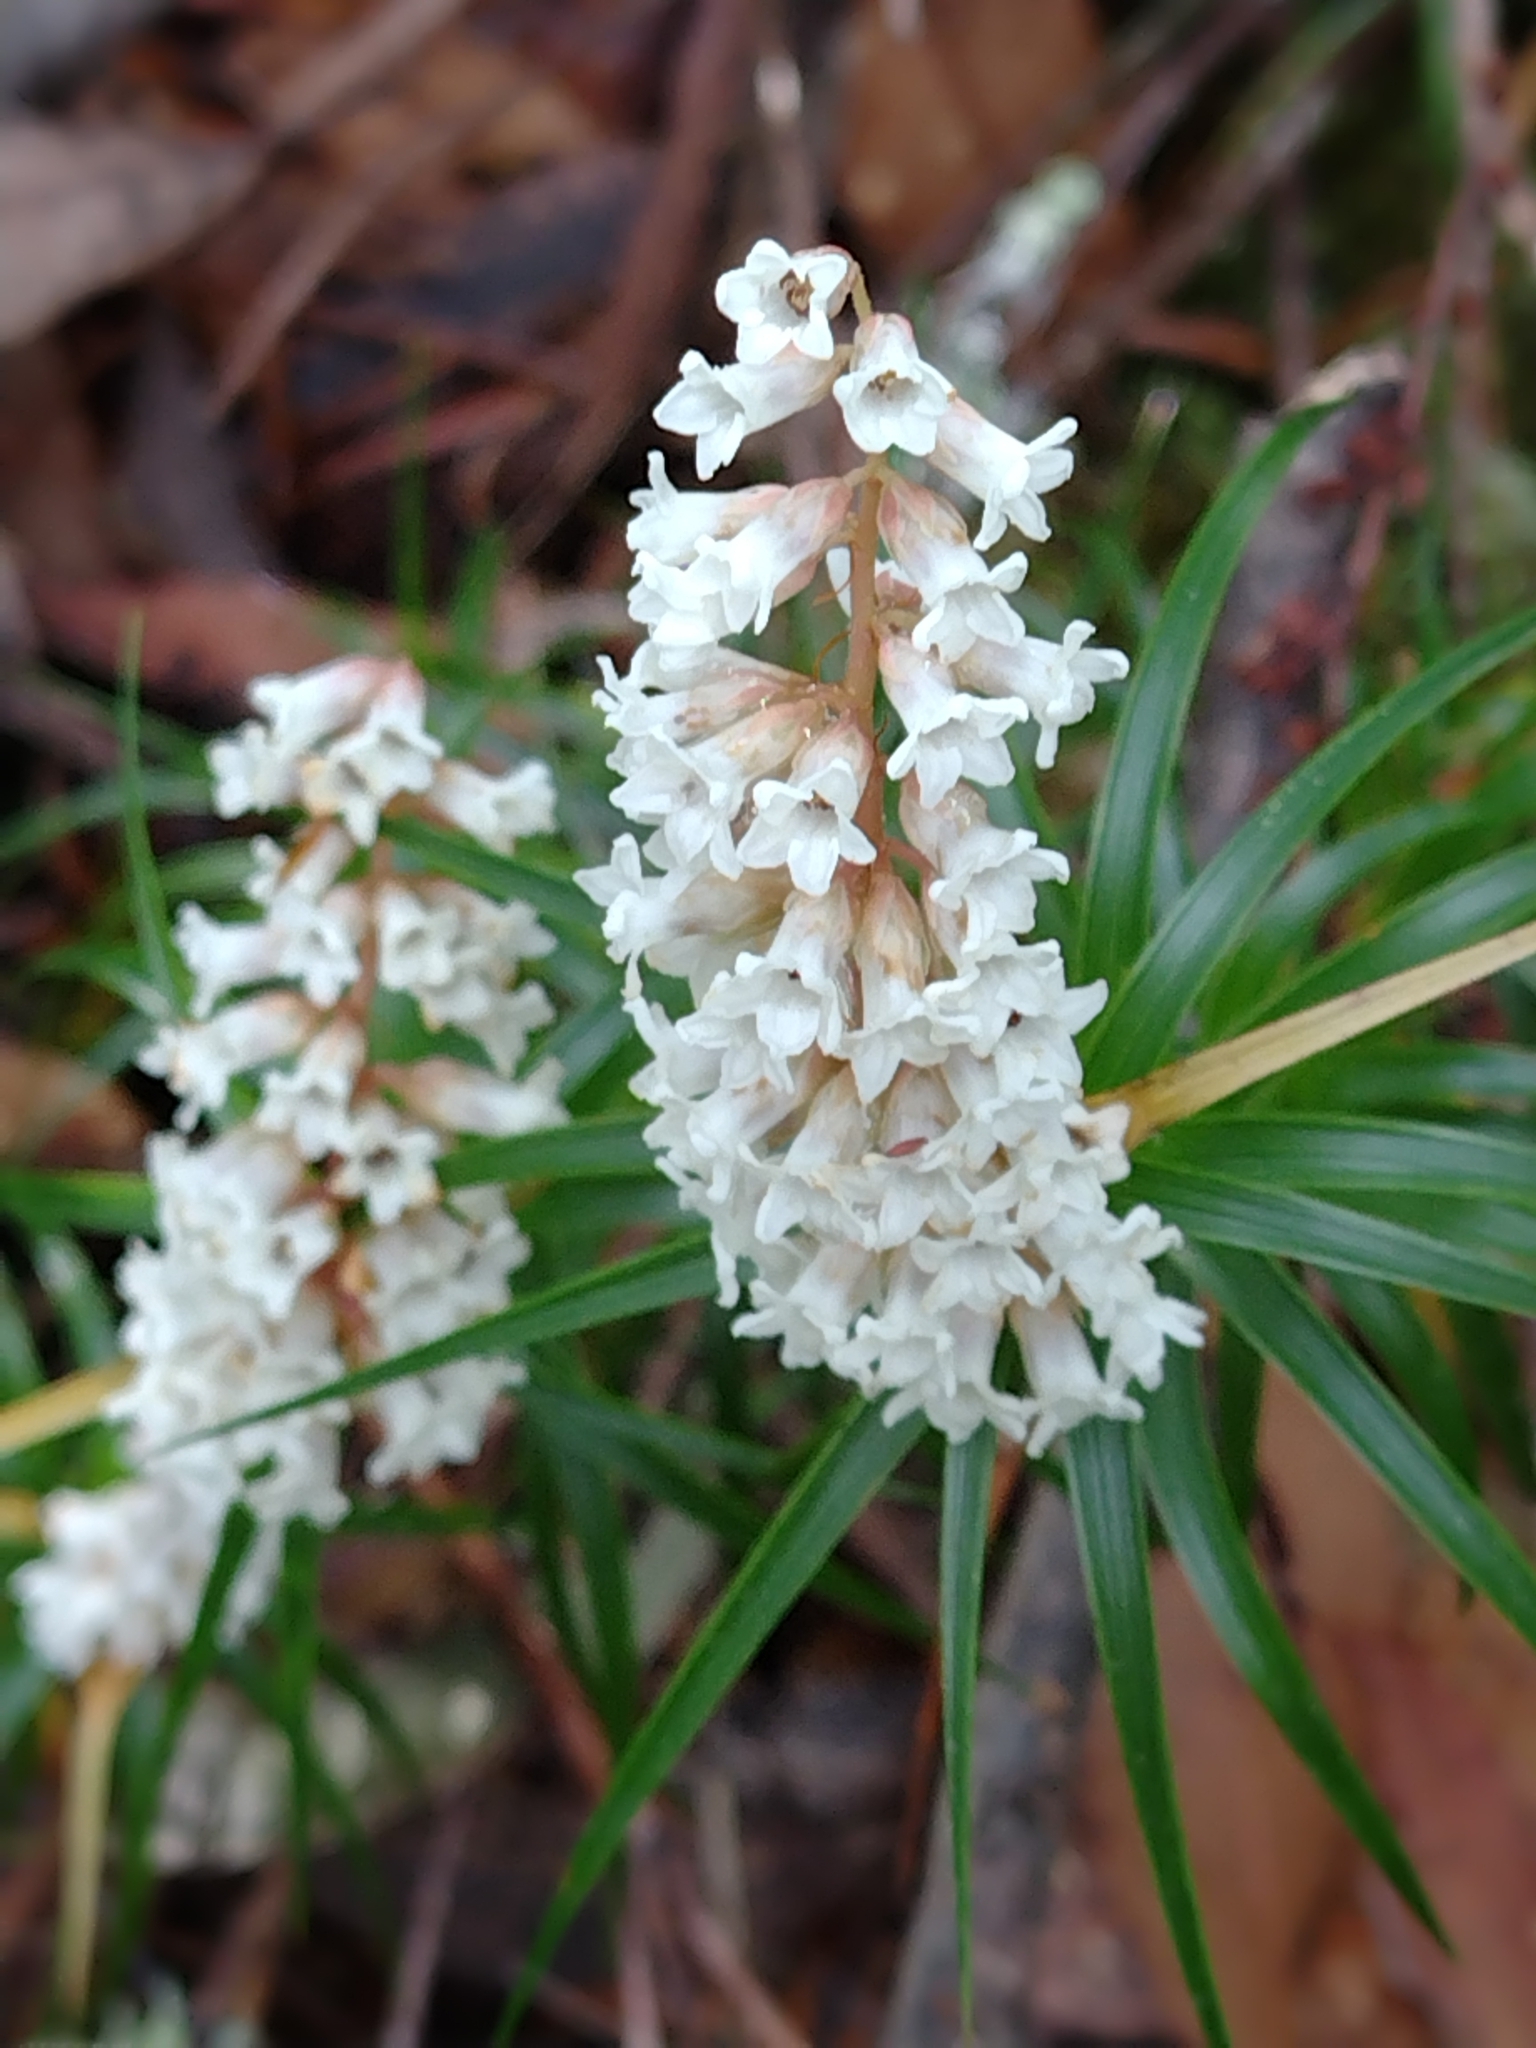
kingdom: Plantae
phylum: Tracheophyta
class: Magnoliopsida
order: Ericales
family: Ericaceae
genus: Dracophyllum
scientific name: Dracophyllum secundum
